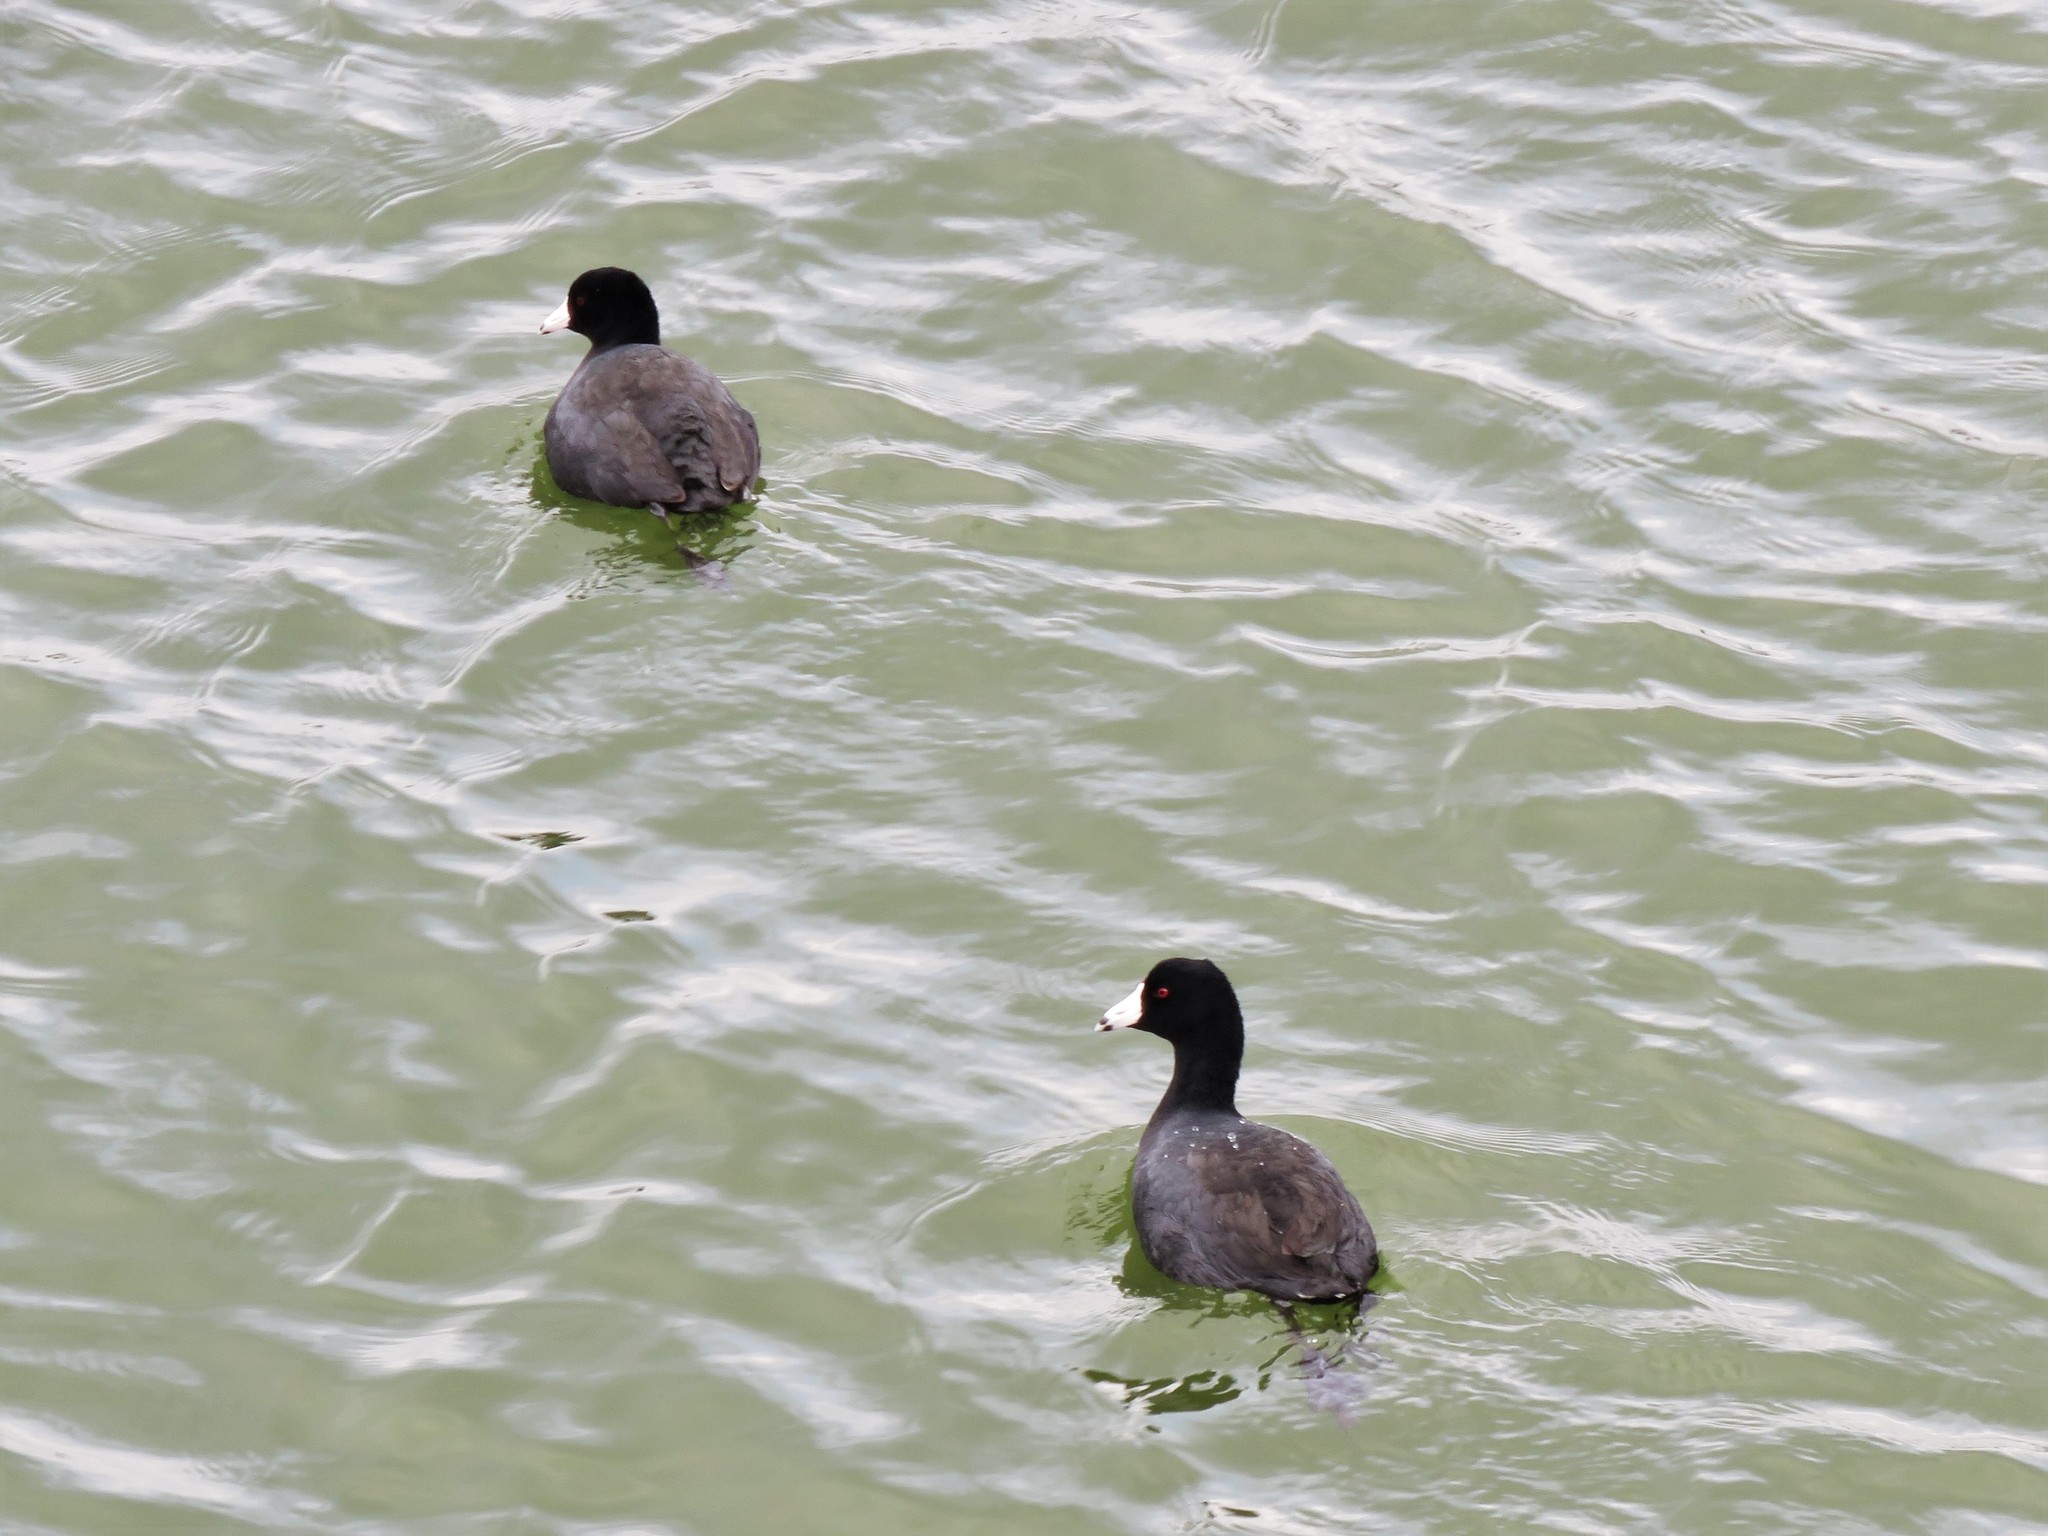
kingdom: Animalia
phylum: Chordata
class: Aves
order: Gruiformes
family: Rallidae
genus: Fulica
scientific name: Fulica americana
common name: American coot
